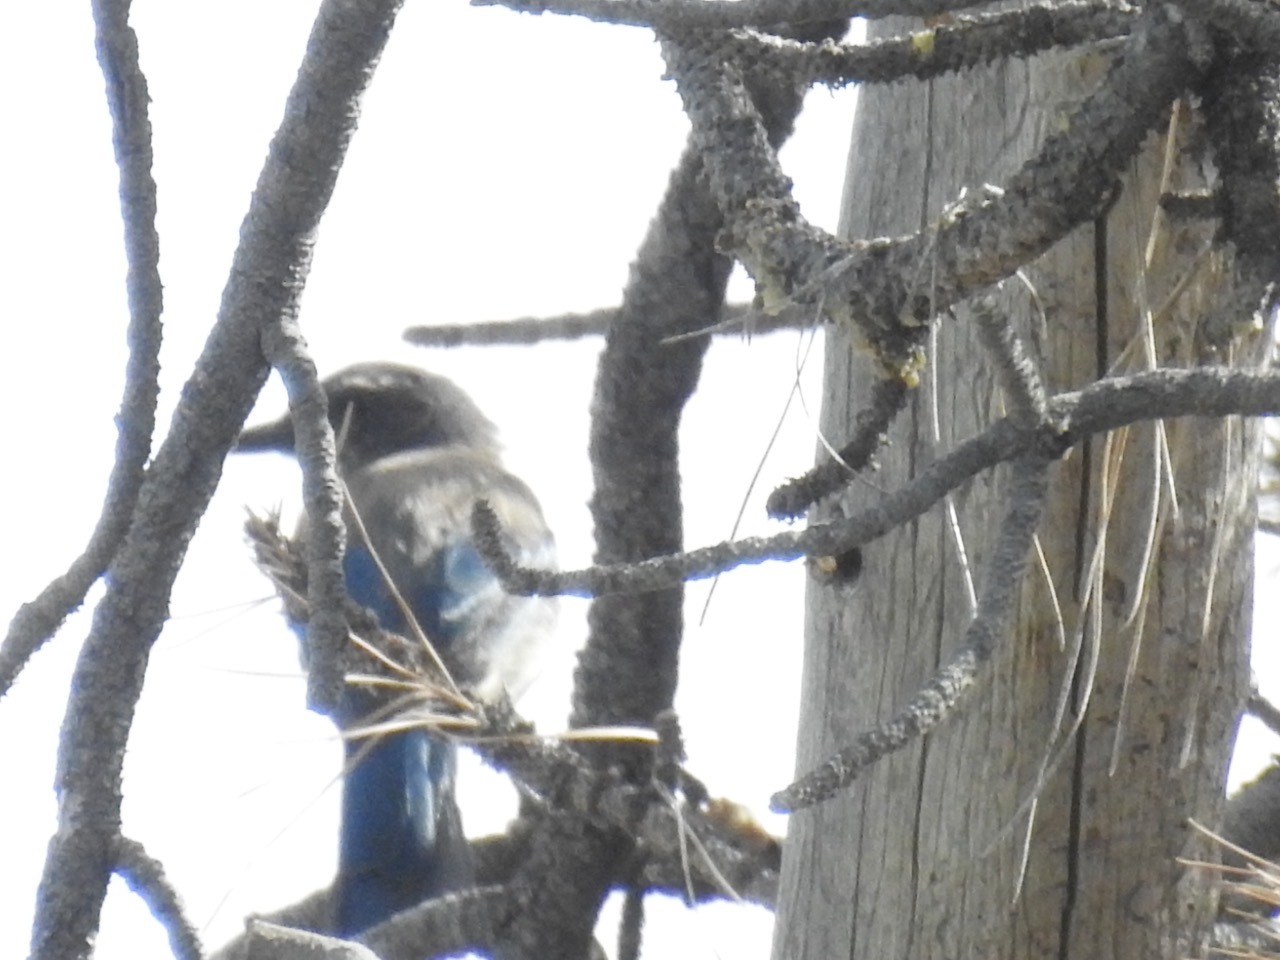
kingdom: Animalia
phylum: Chordata
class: Aves
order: Passeriformes
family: Corvidae
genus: Aphelocoma
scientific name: Aphelocoma californica
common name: California scrub-jay
